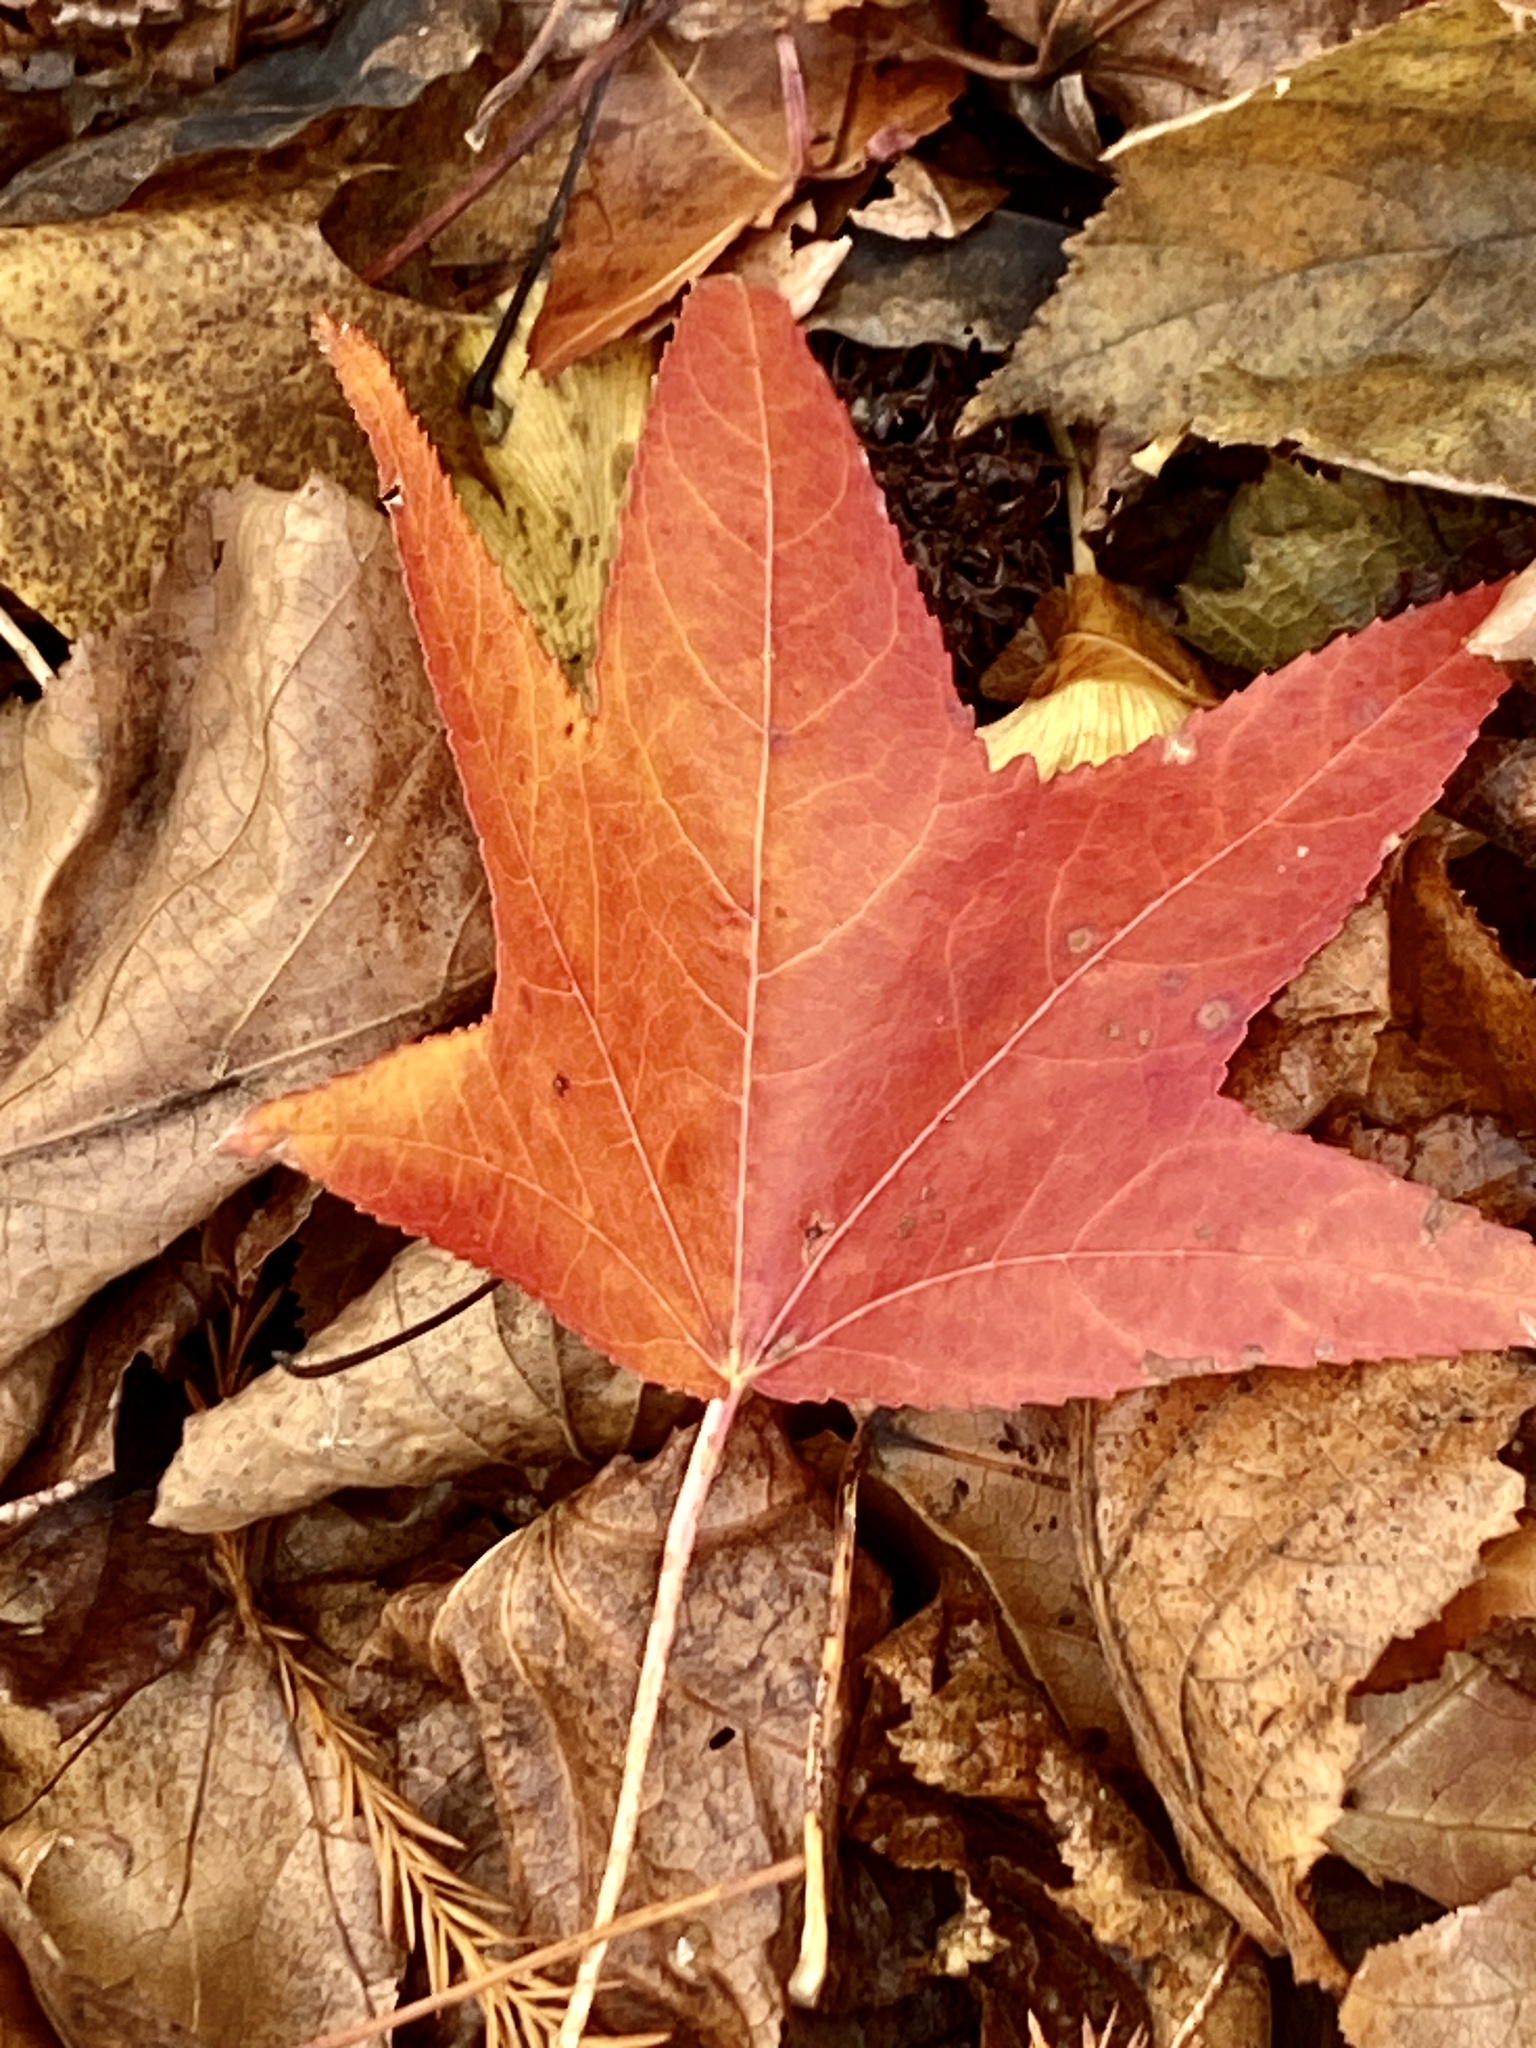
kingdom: Plantae
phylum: Tracheophyta
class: Magnoliopsida
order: Saxifragales
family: Altingiaceae
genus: Liquidambar
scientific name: Liquidambar styraciflua
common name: Sweet gum
